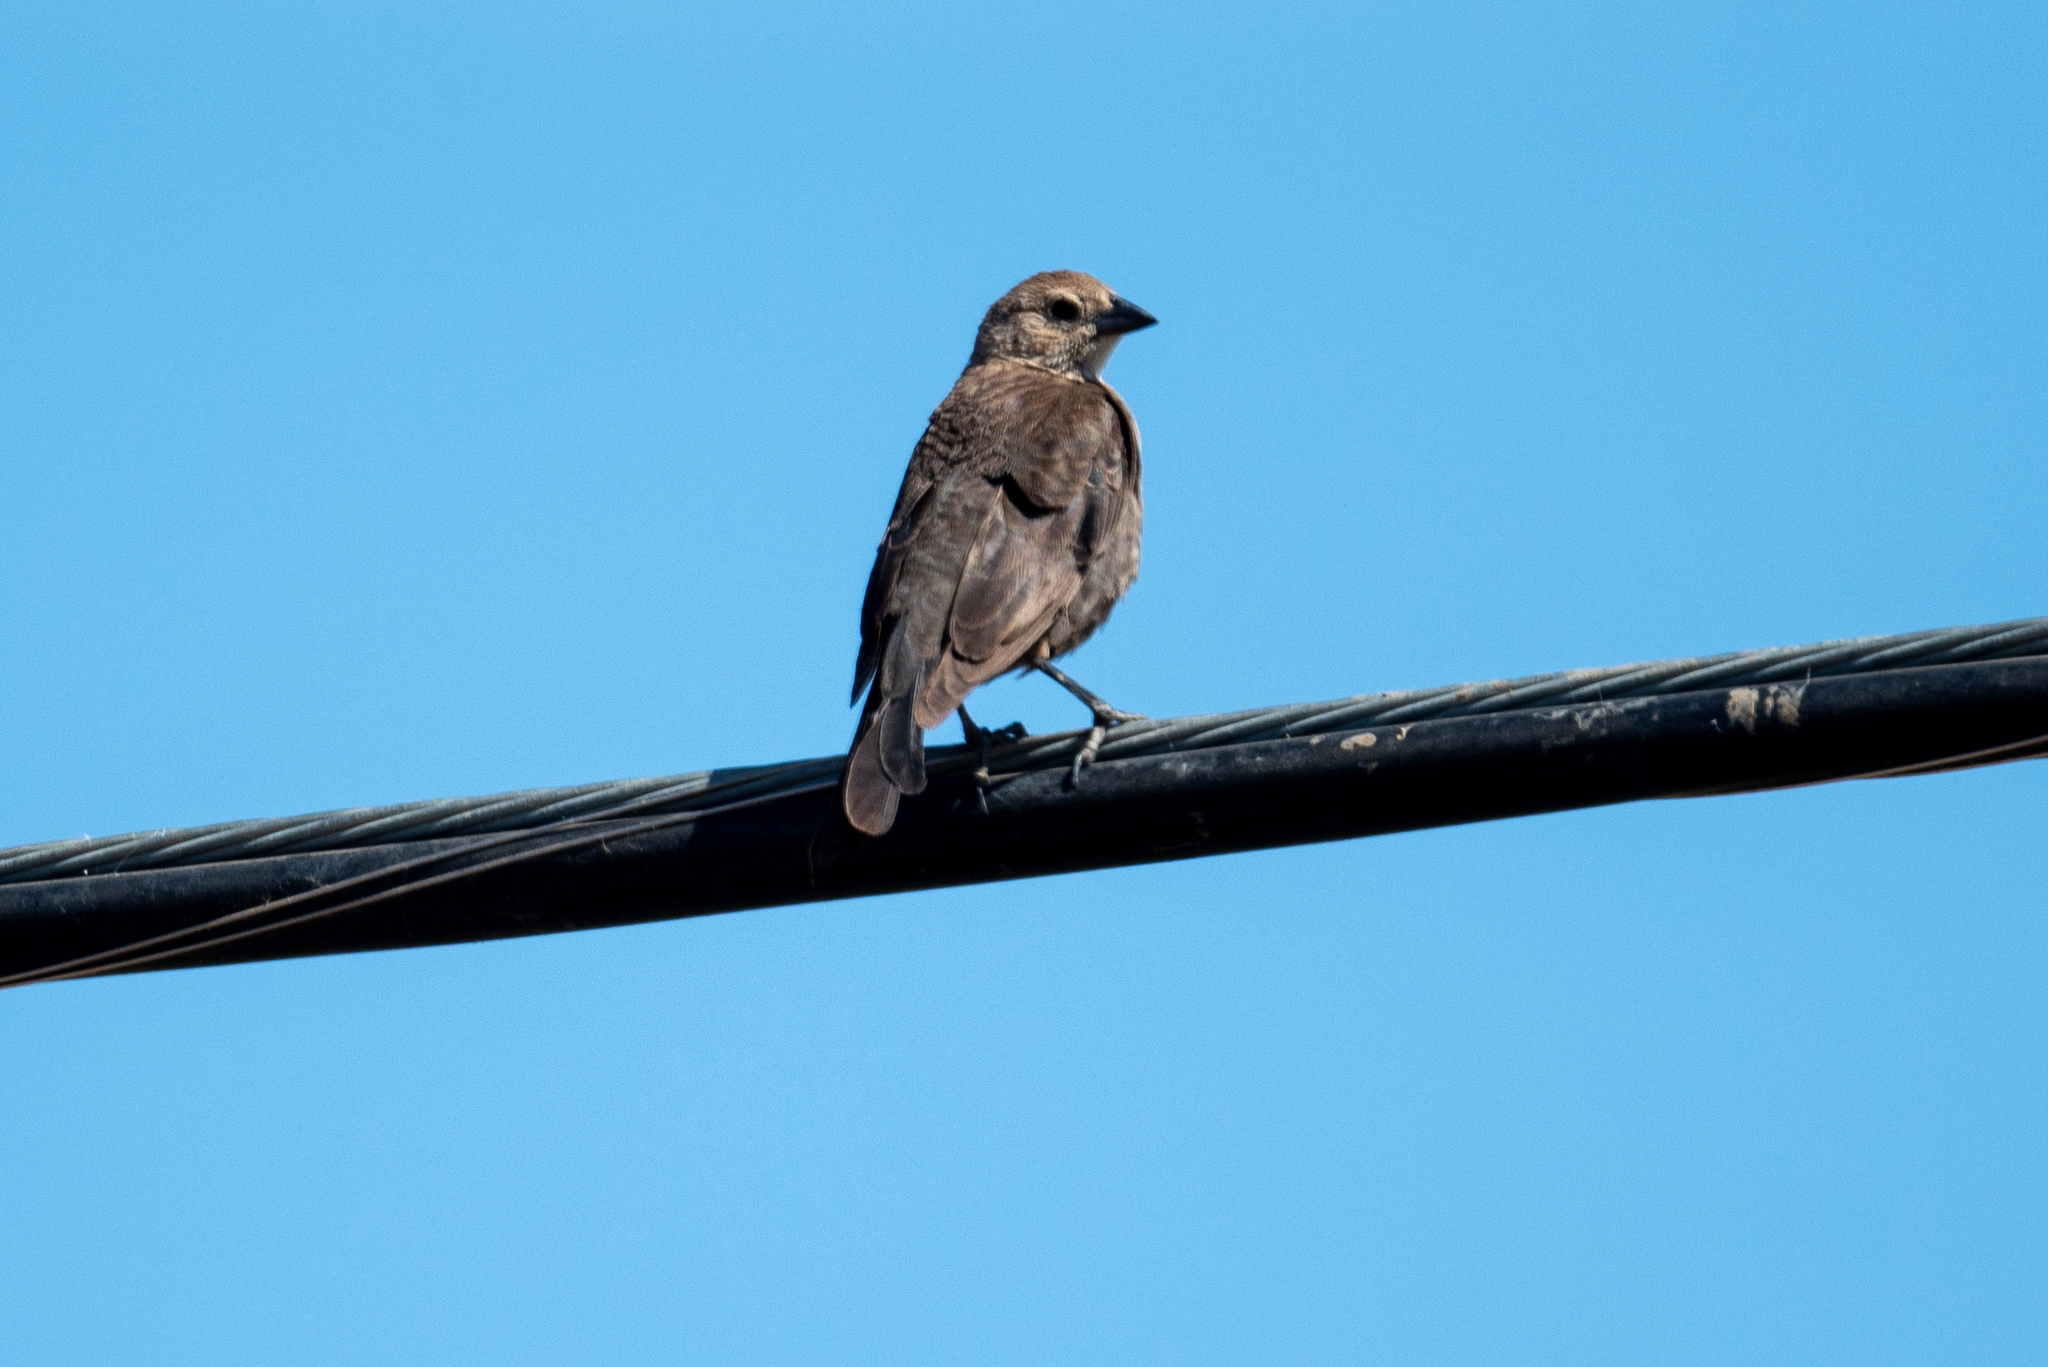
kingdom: Animalia
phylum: Chordata
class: Aves
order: Passeriformes
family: Icteridae
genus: Molothrus
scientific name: Molothrus ater
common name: Brown-headed cowbird
